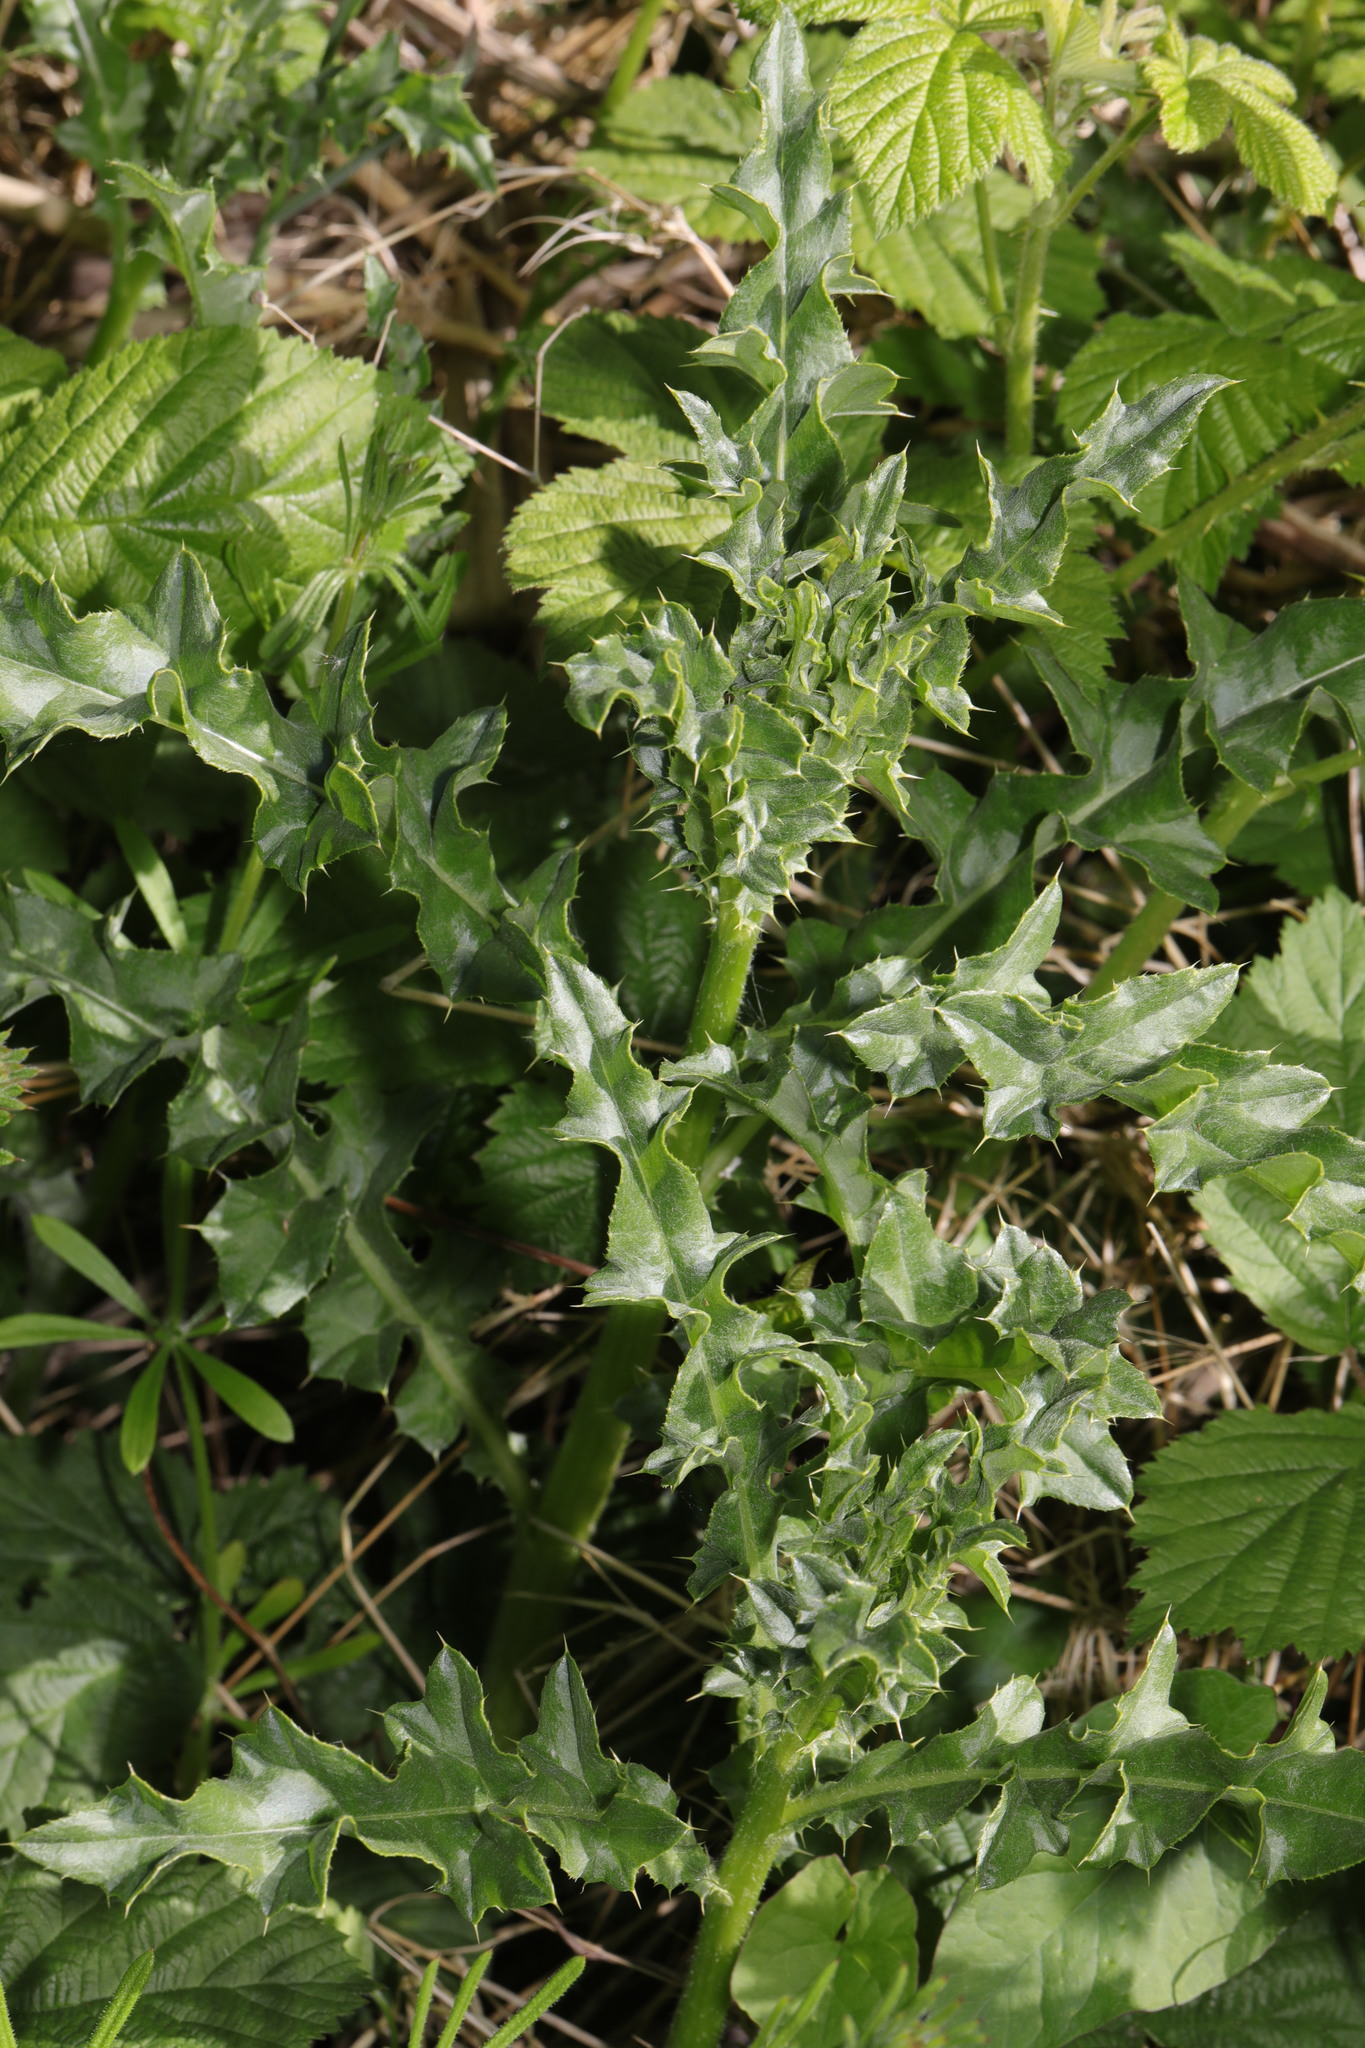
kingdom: Plantae
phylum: Tracheophyta
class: Magnoliopsida
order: Asterales
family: Asteraceae
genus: Cirsium
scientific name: Cirsium arvense
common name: Creeping thistle
